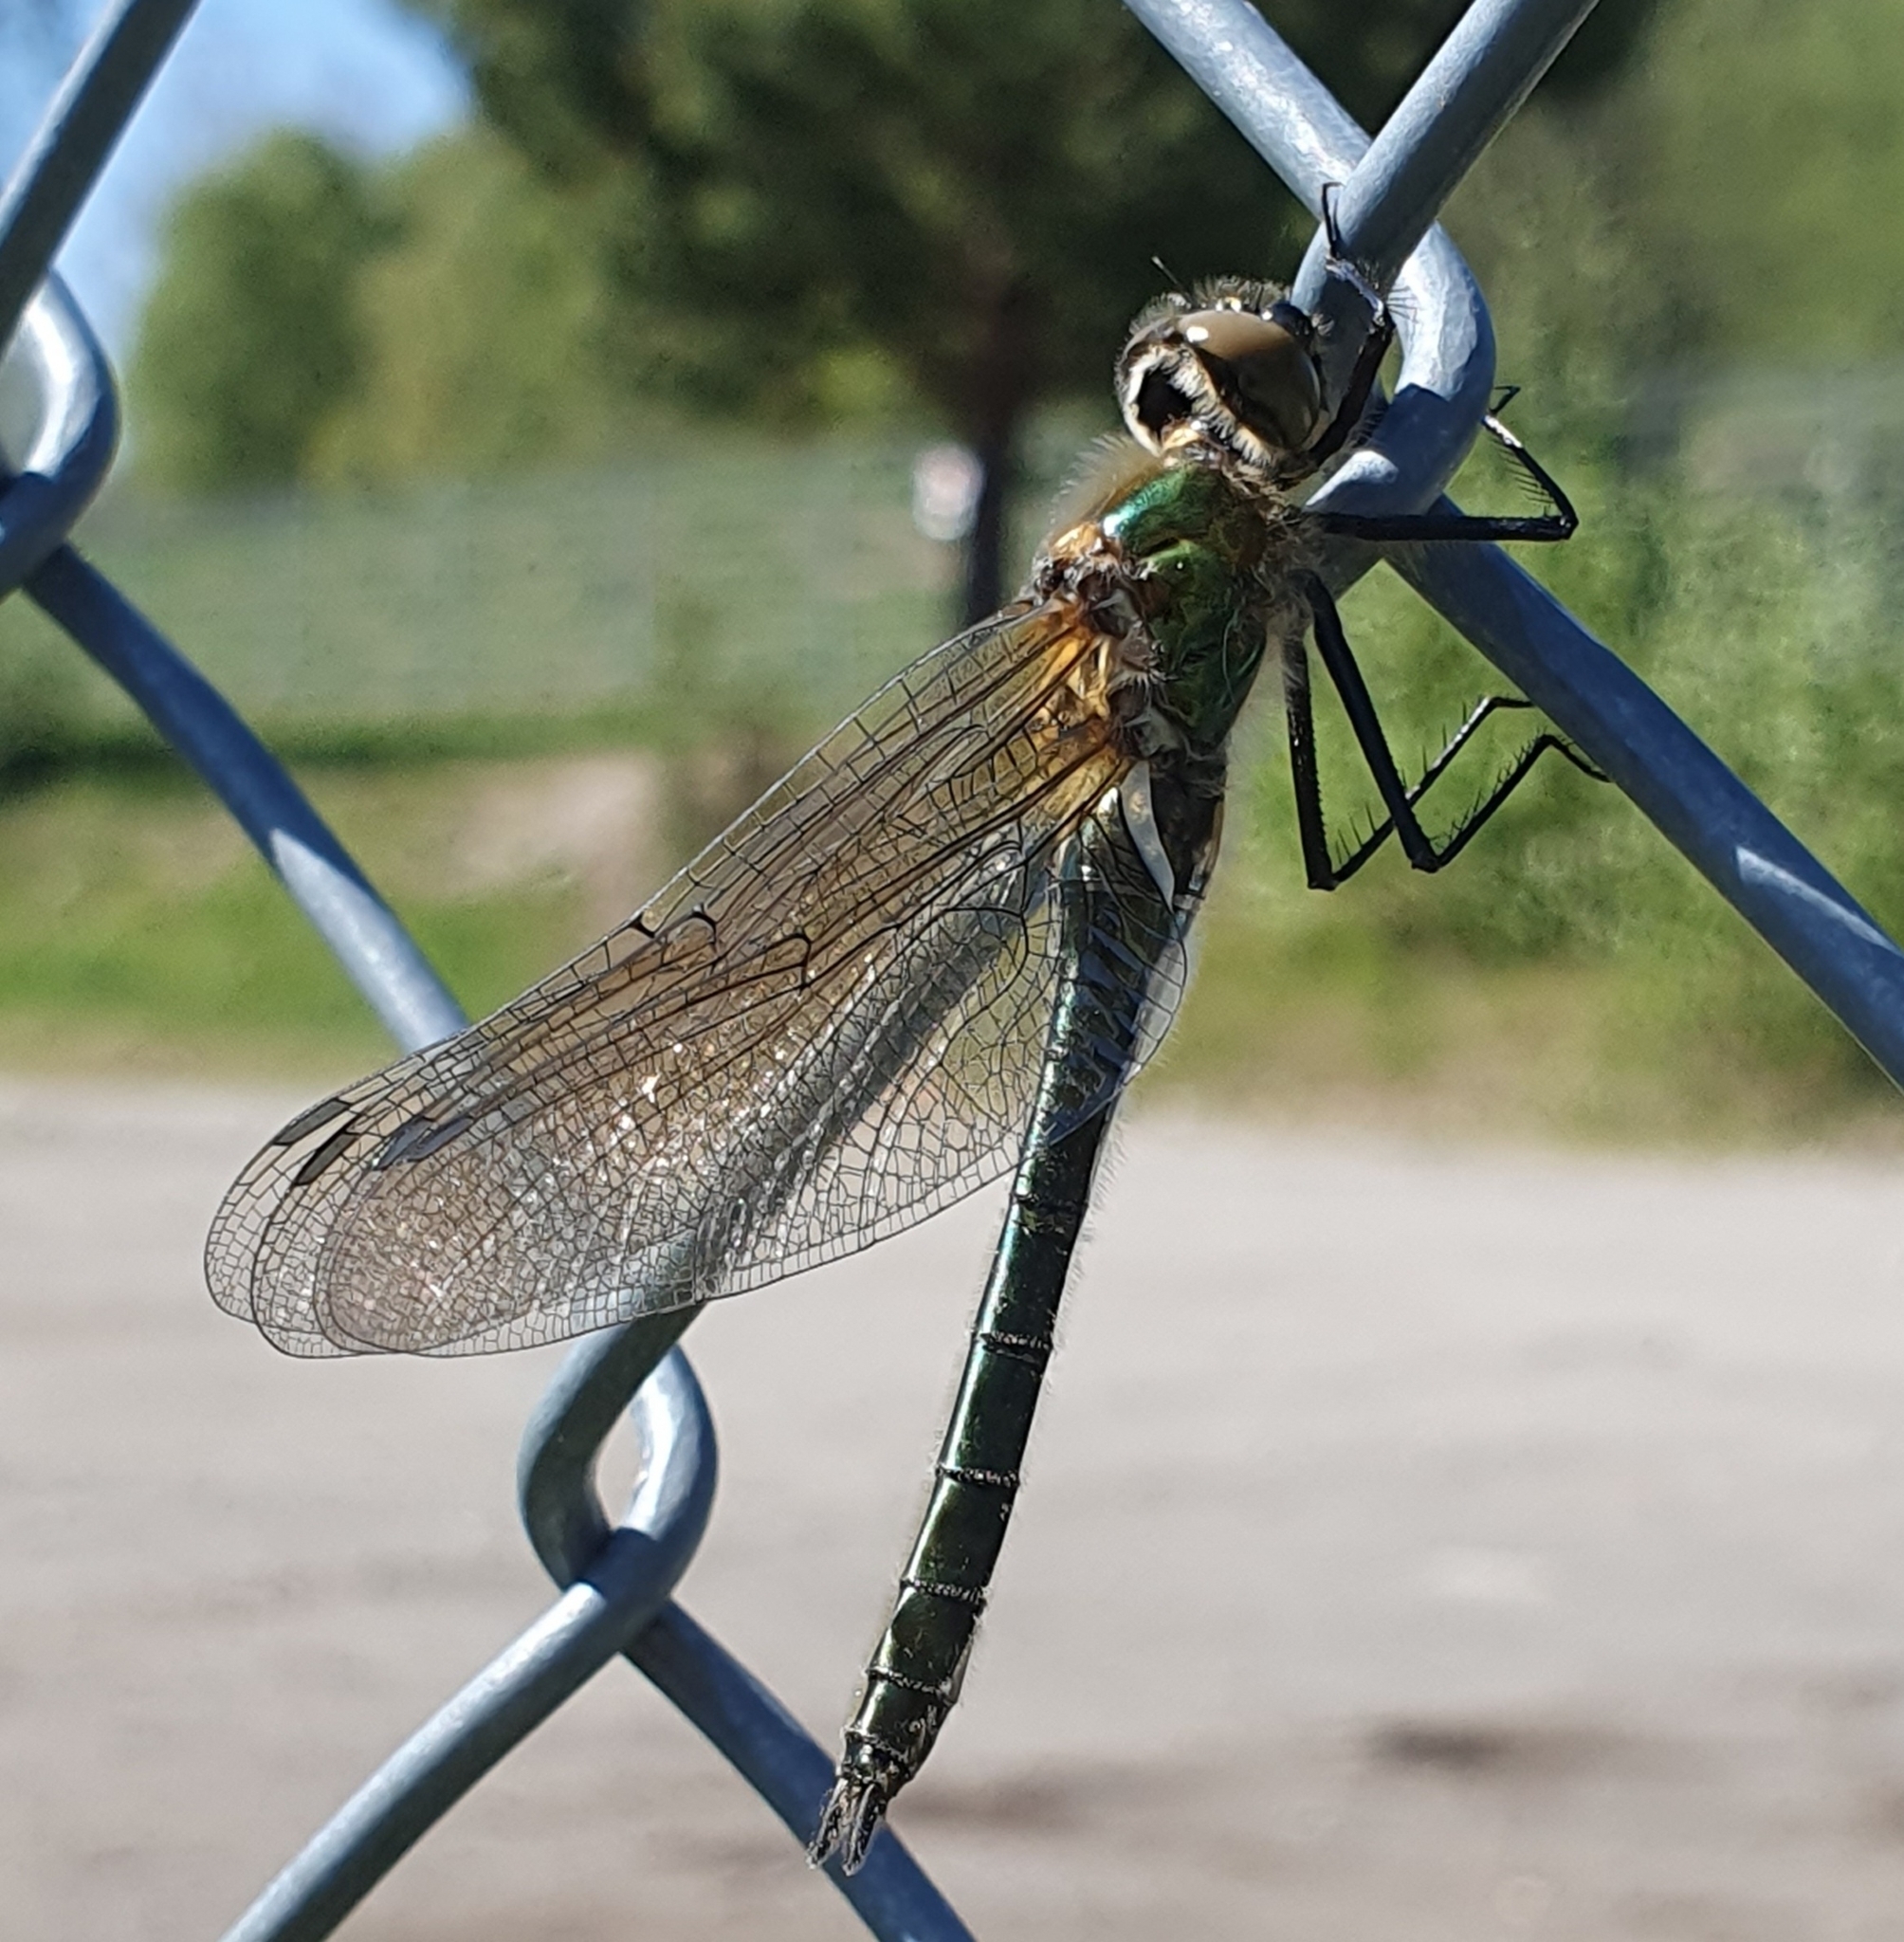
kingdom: Animalia
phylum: Arthropoda
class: Insecta
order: Odonata
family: Corduliidae
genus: Cordulia
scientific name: Cordulia aenea
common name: Downy emerald
